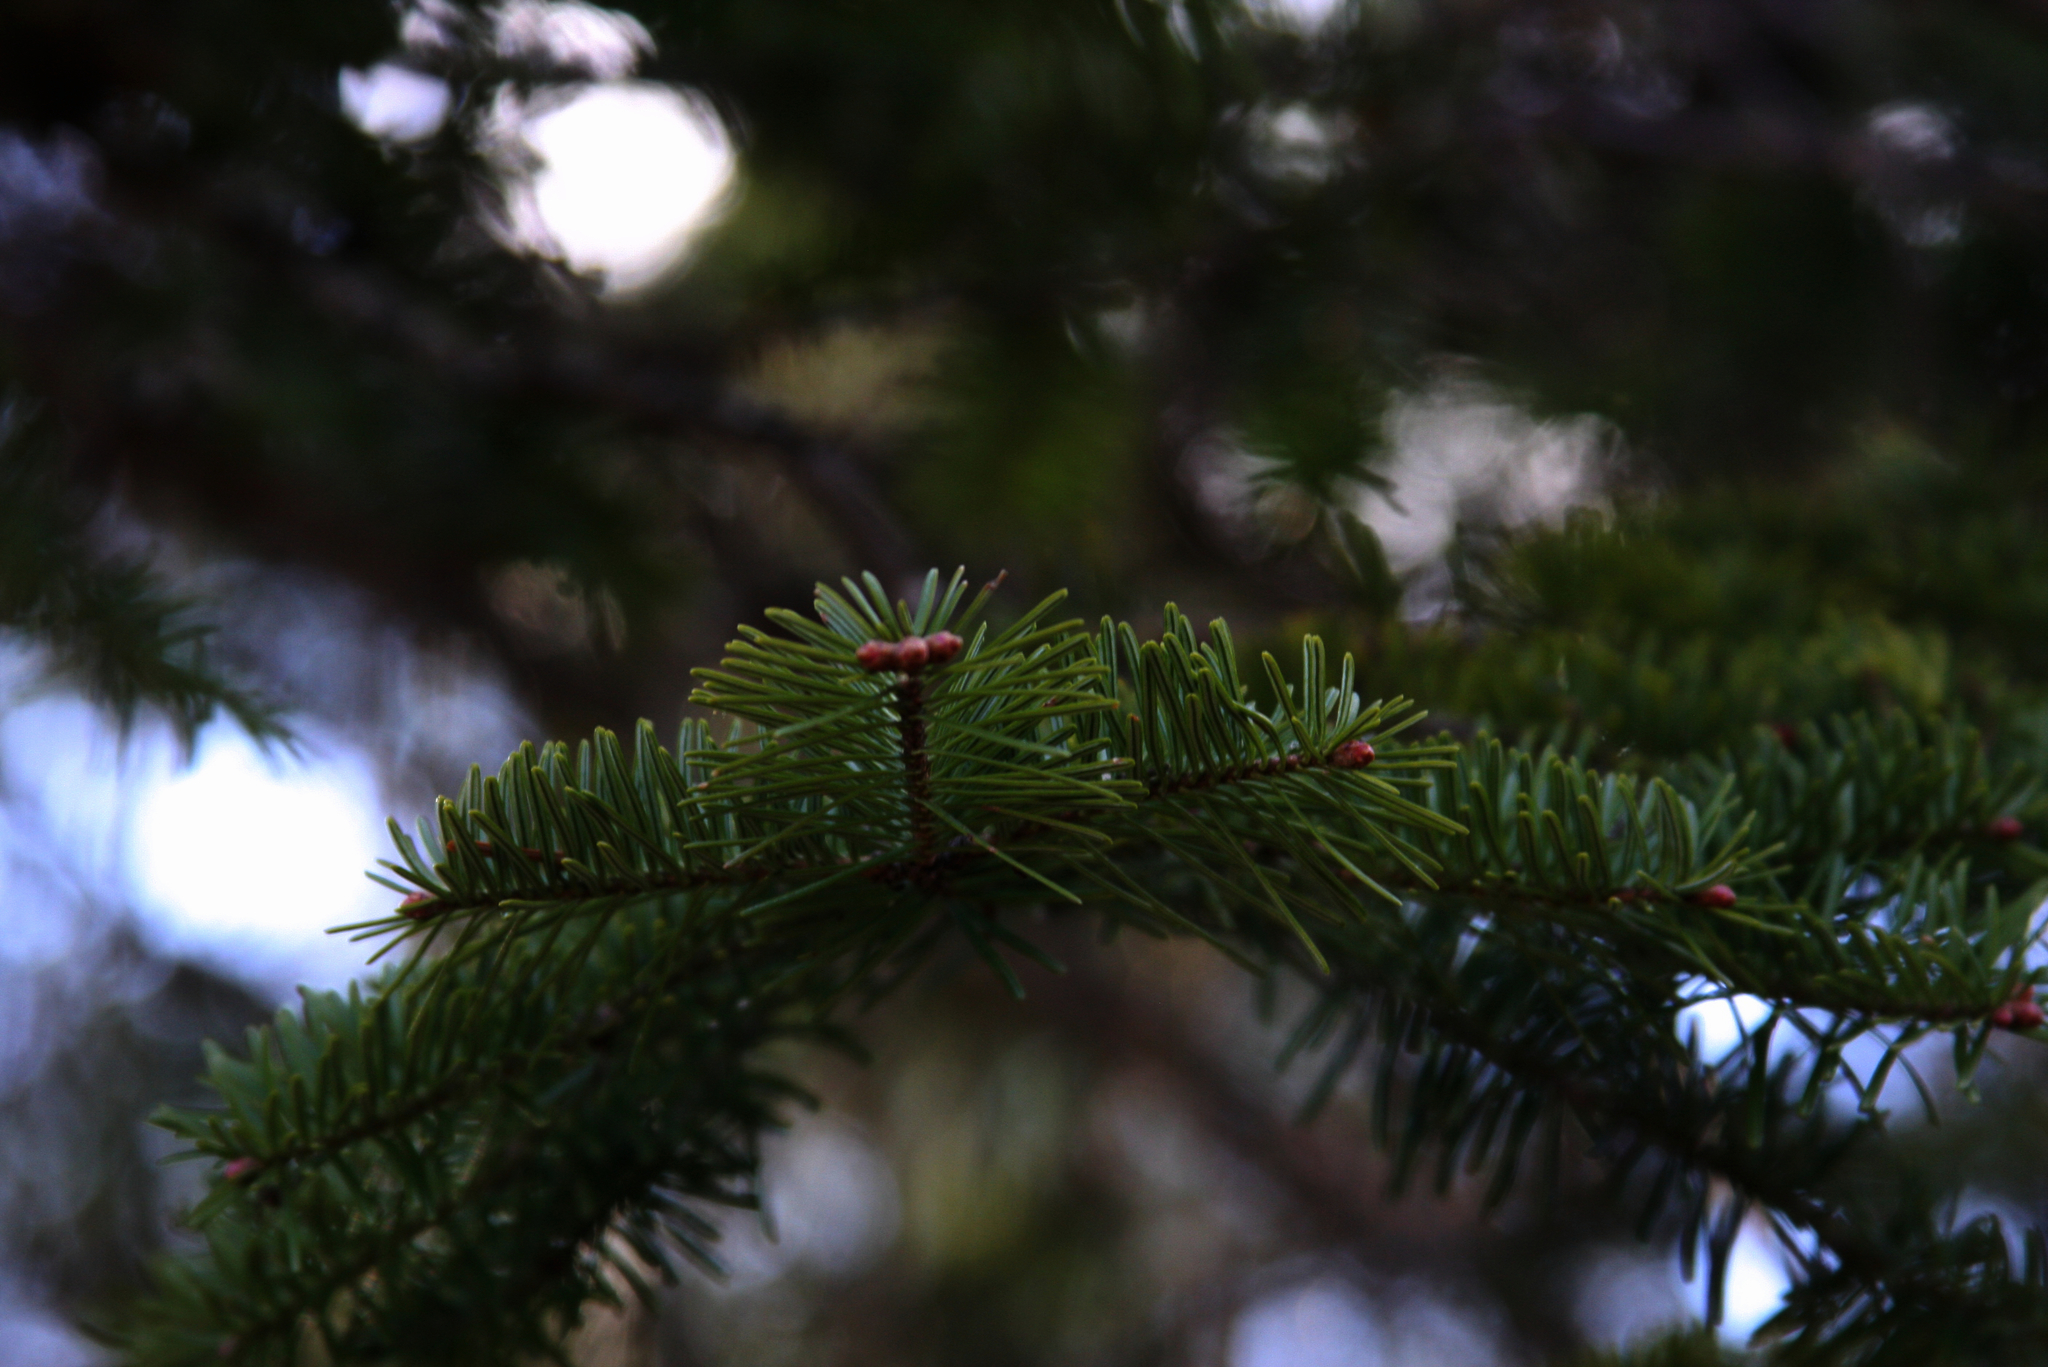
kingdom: Plantae
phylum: Tracheophyta
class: Pinopsida
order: Pinales
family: Pinaceae
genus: Abies
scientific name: Abies balsamea
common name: Balsam fir
